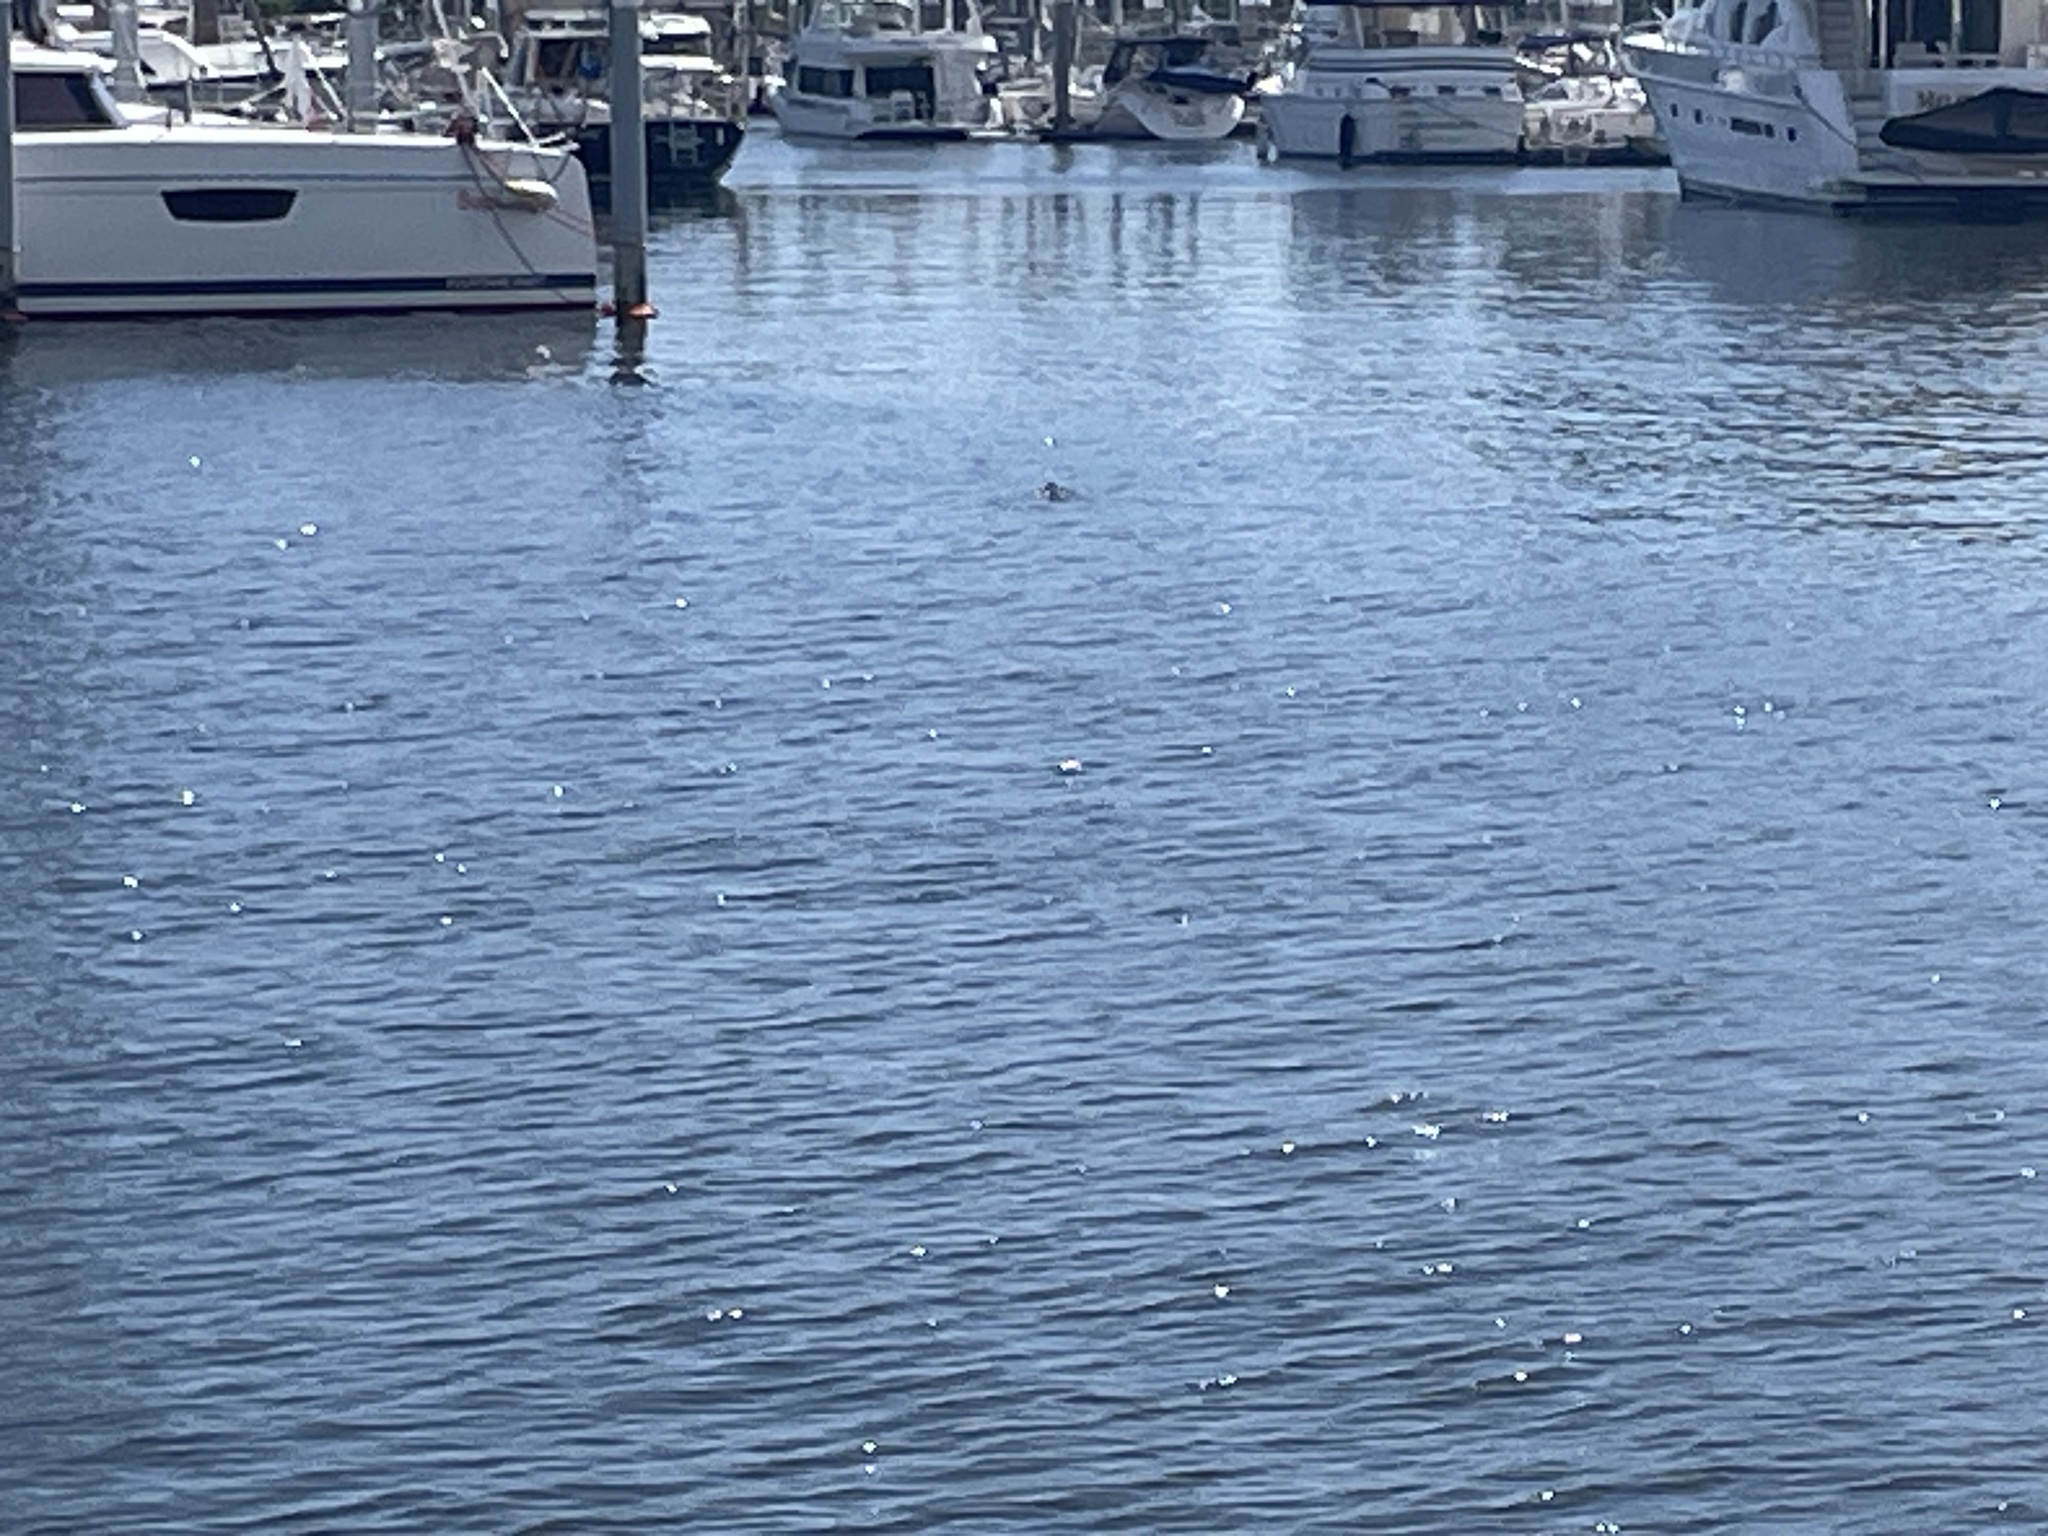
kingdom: Animalia
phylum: Chordata
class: Crocodylia
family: Alligatoridae
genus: Alligator
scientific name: Alligator mississippiensis
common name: American alligator
